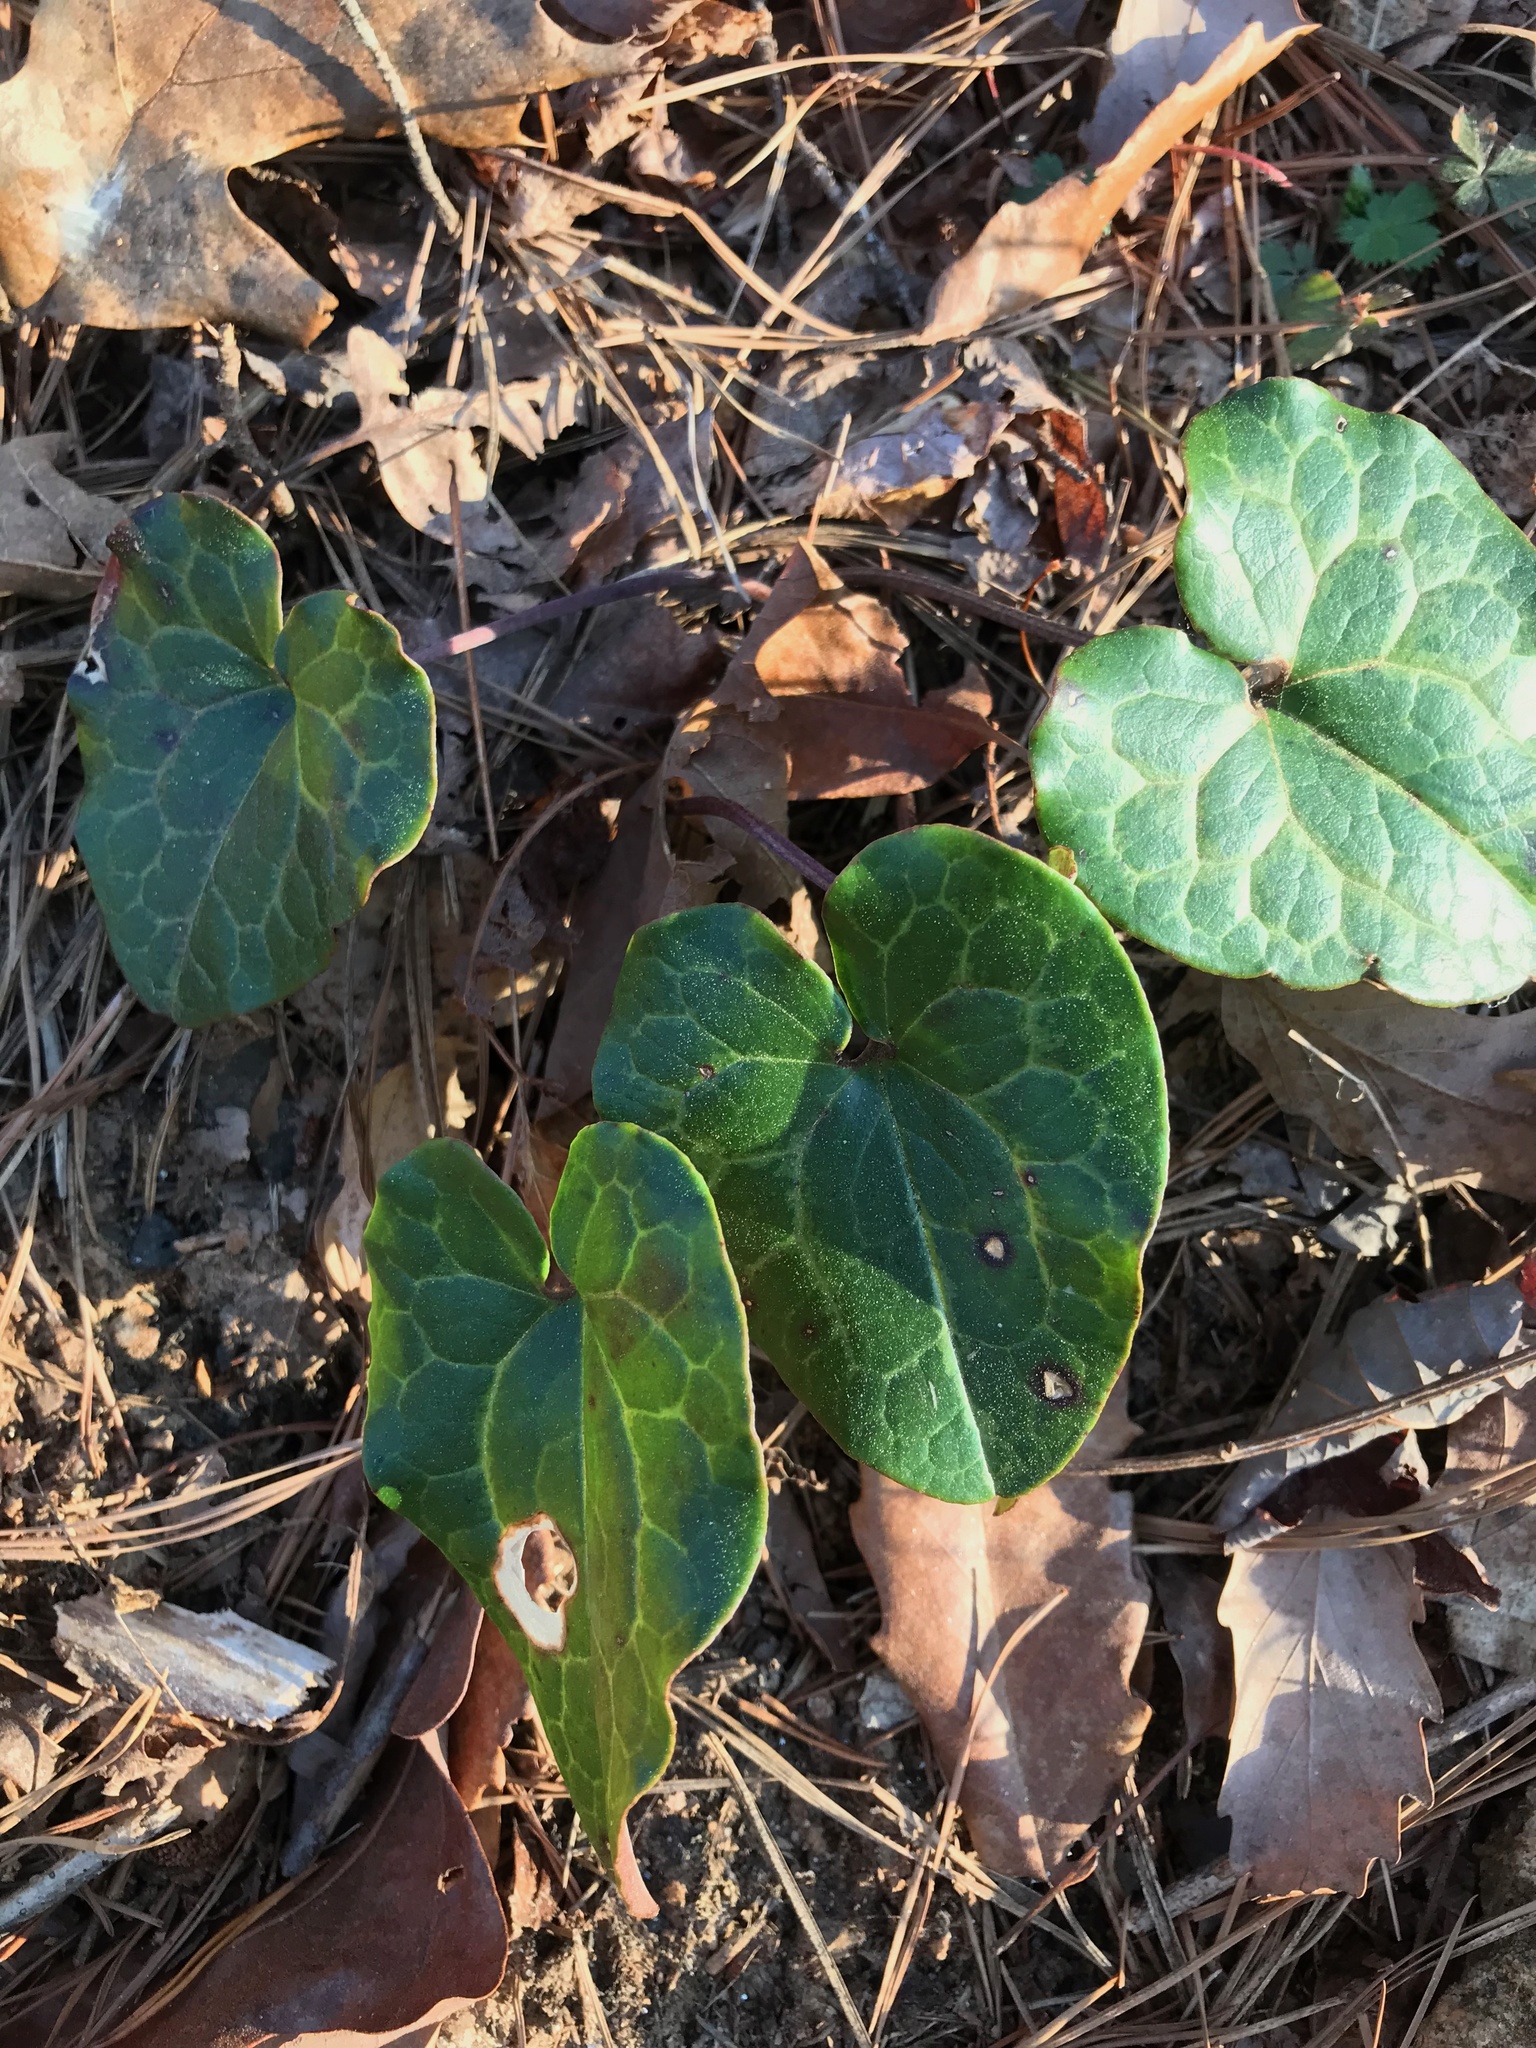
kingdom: Plantae
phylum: Tracheophyta
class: Magnoliopsida
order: Piperales
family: Aristolochiaceae
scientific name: Aristolochiaceae
